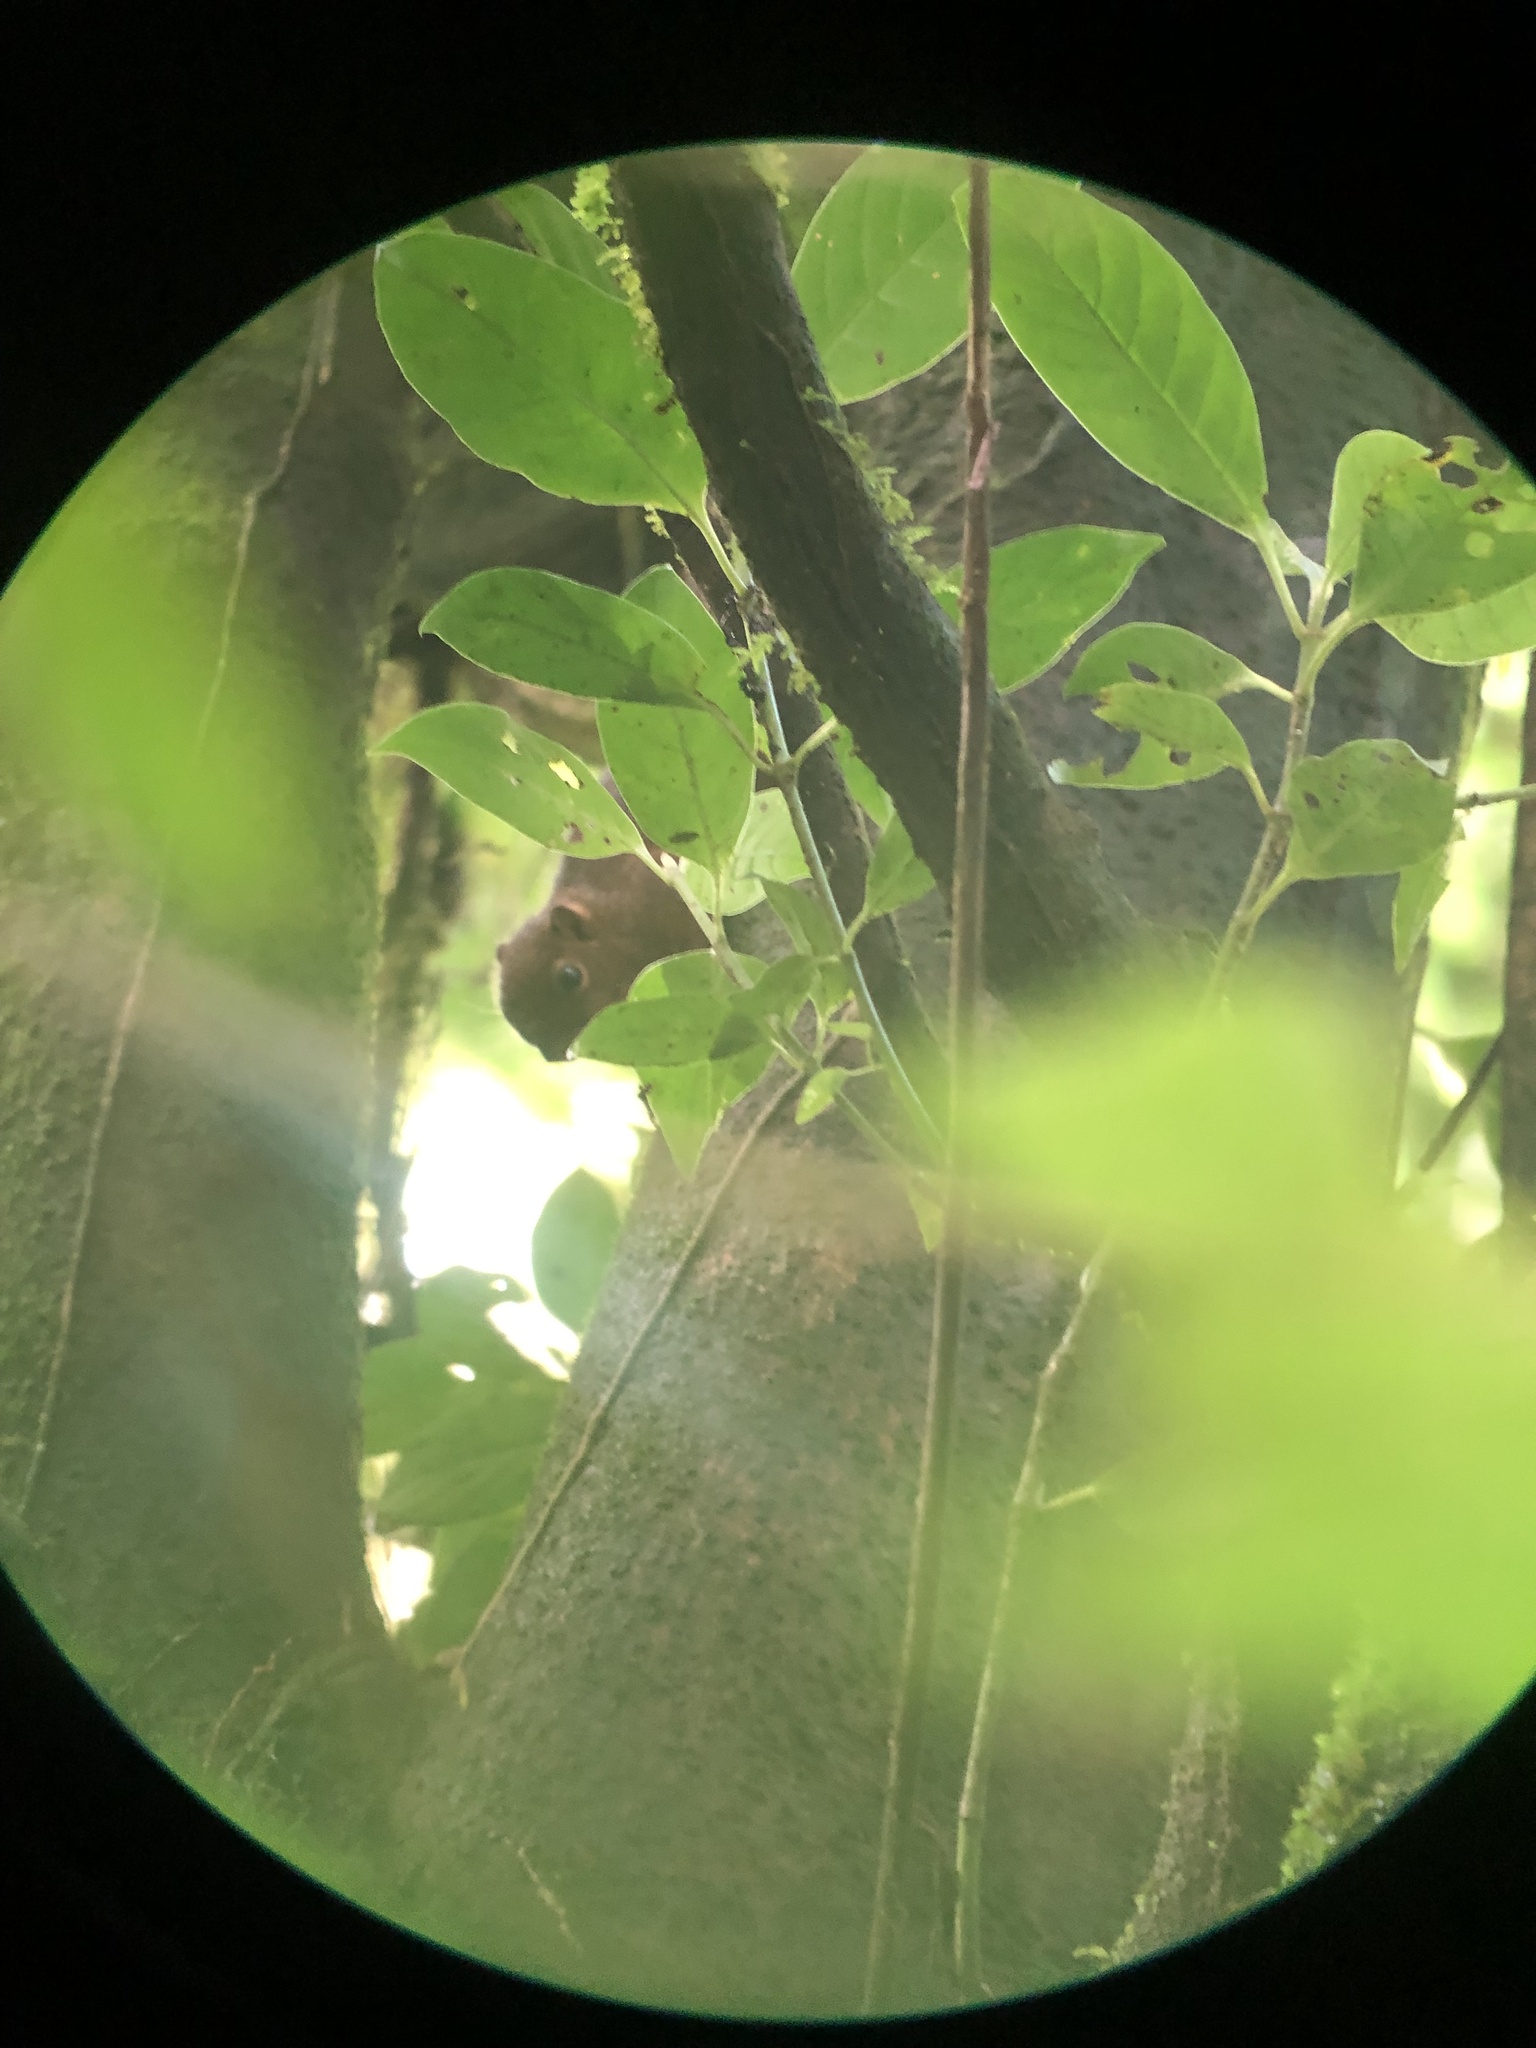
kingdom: Animalia
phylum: Chordata
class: Mammalia
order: Rodentia
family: Sciuridae
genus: Microsciurus
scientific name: Microsciurus mimulus
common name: Western dwarf squirrel
